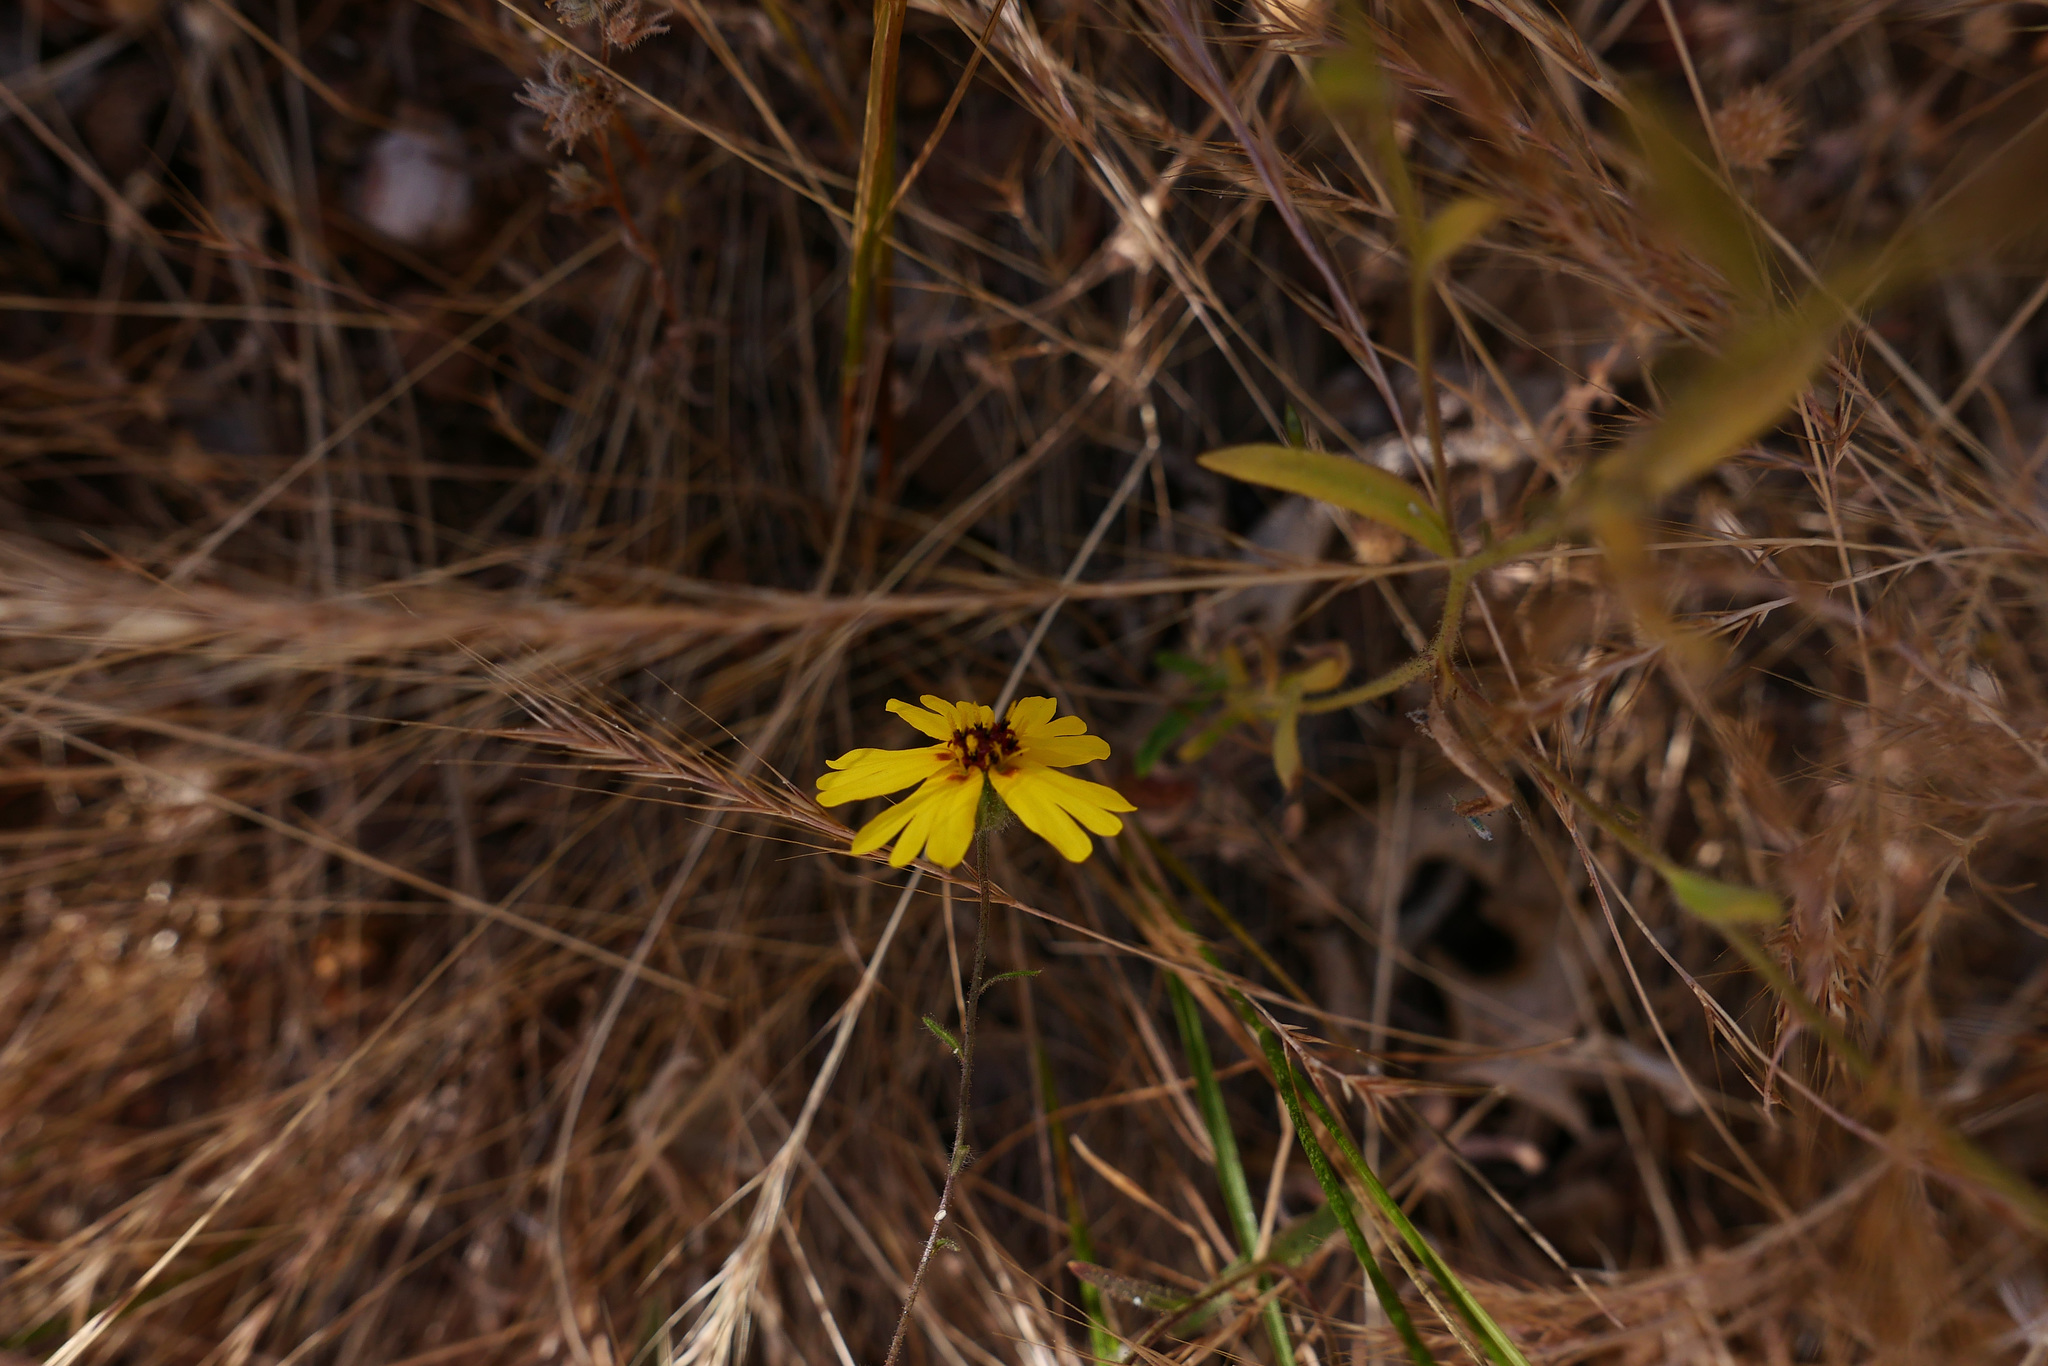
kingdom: Plantae
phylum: Tracheophyta
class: Magnoliopsida
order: Asterales
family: Asteraceae
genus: Madia
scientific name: Madia elegans
